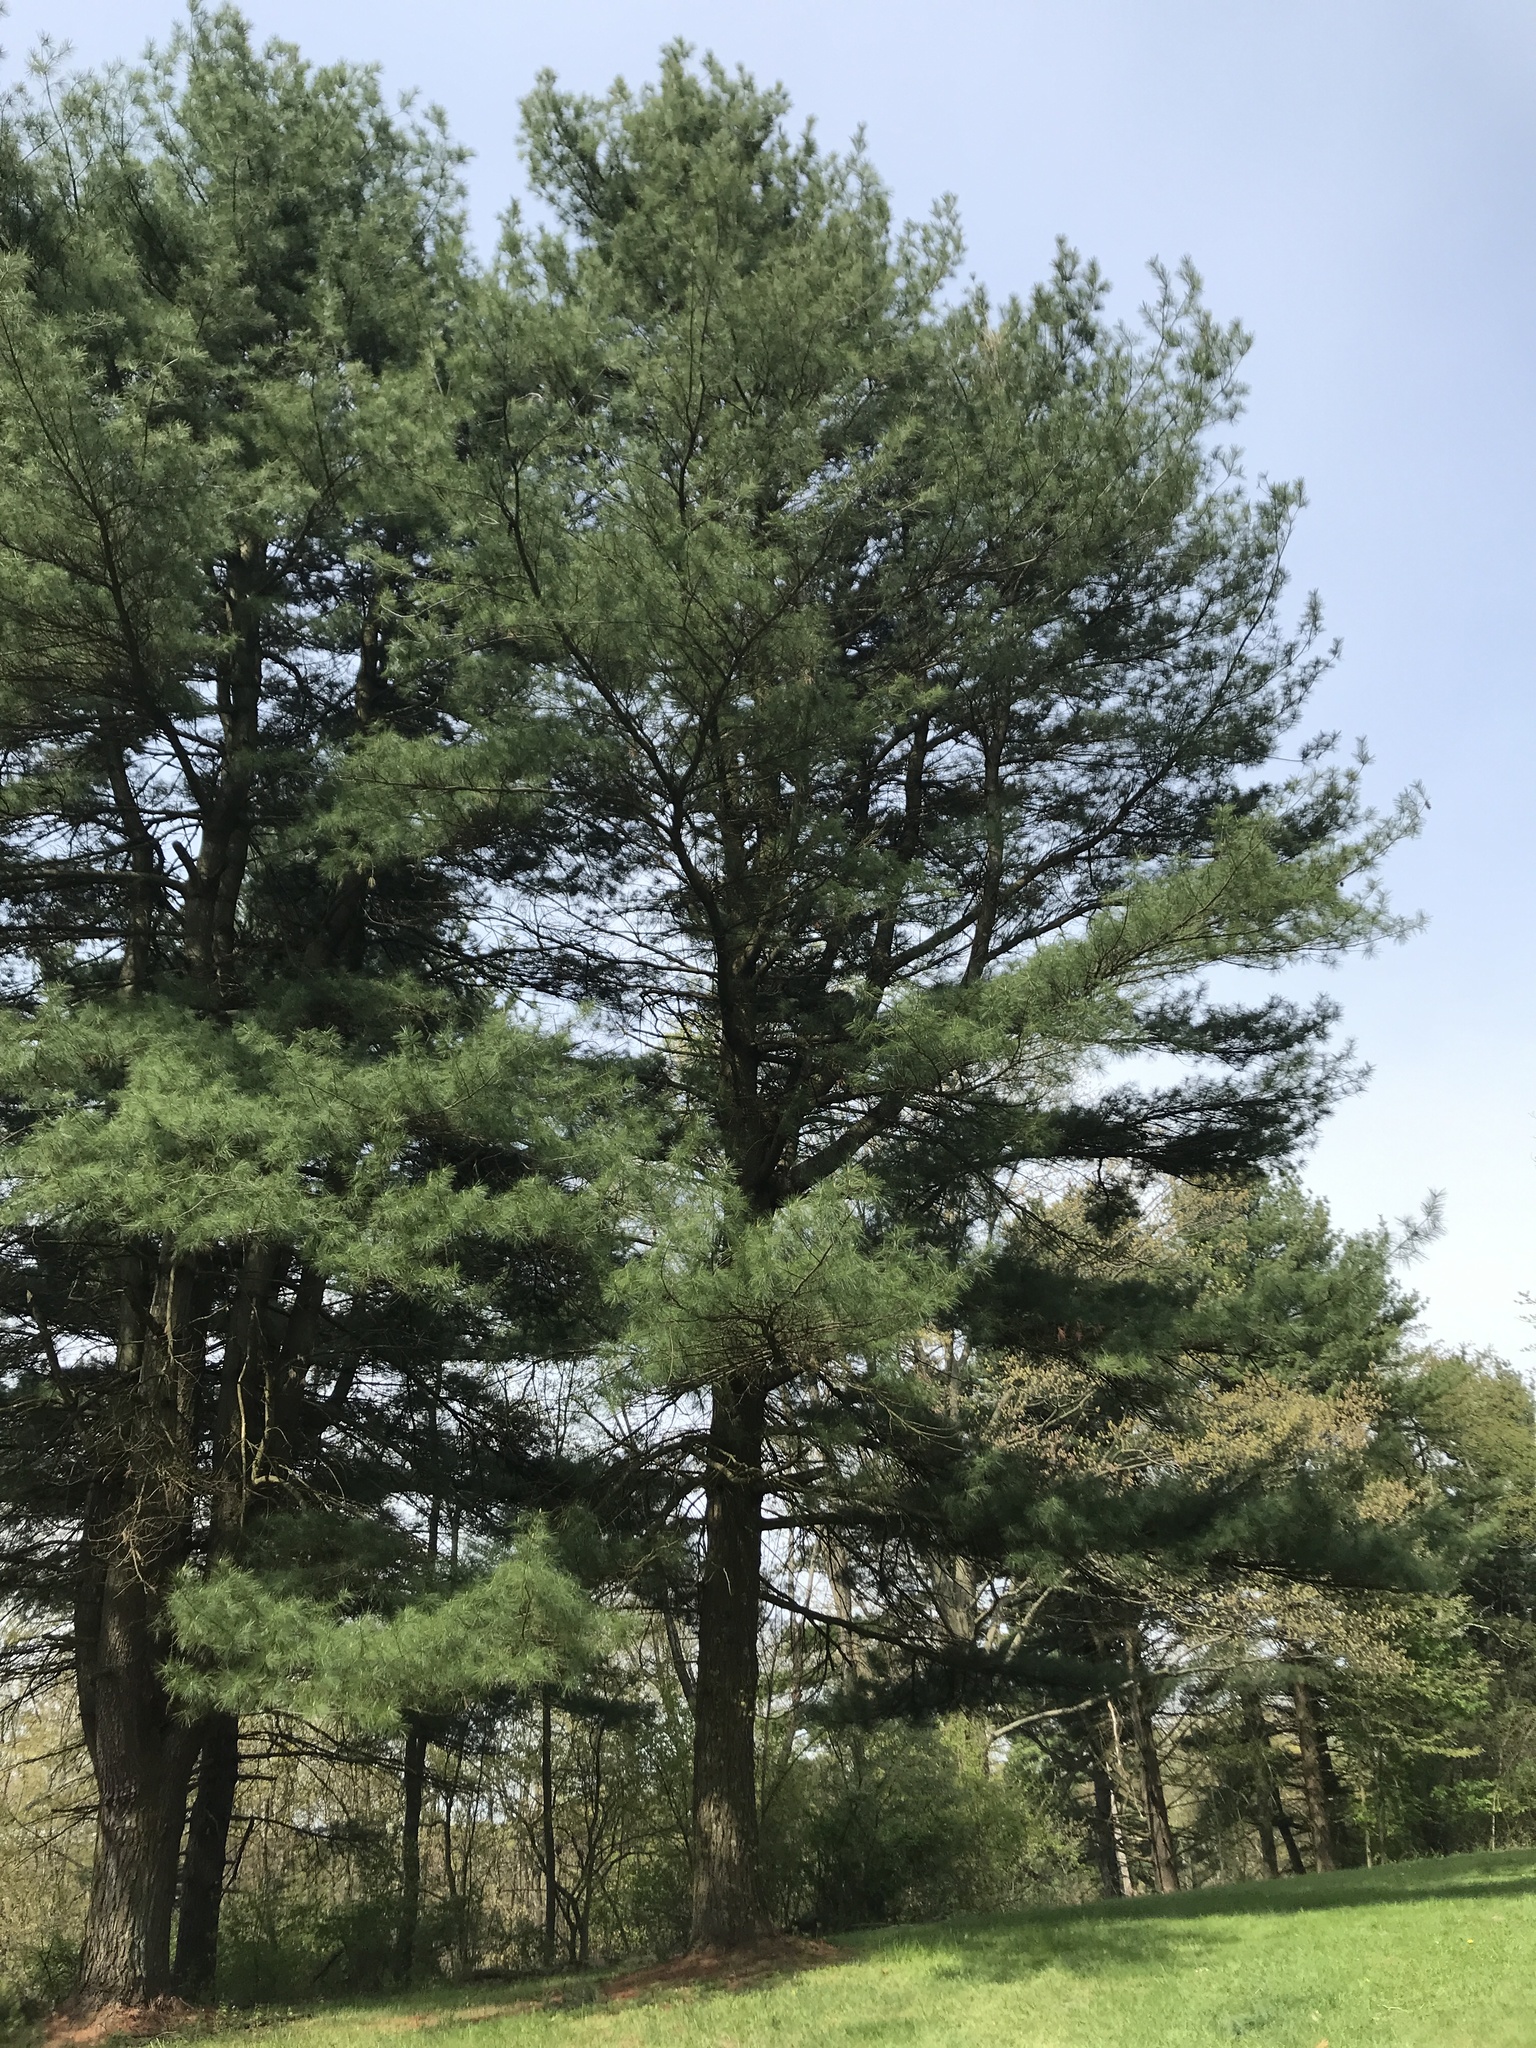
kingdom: Plantae
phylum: Tracheophyta
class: Pinopsida
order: Pinales
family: Pinaceae
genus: Pinus
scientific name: Pinus strobus
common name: Weymouth pine
